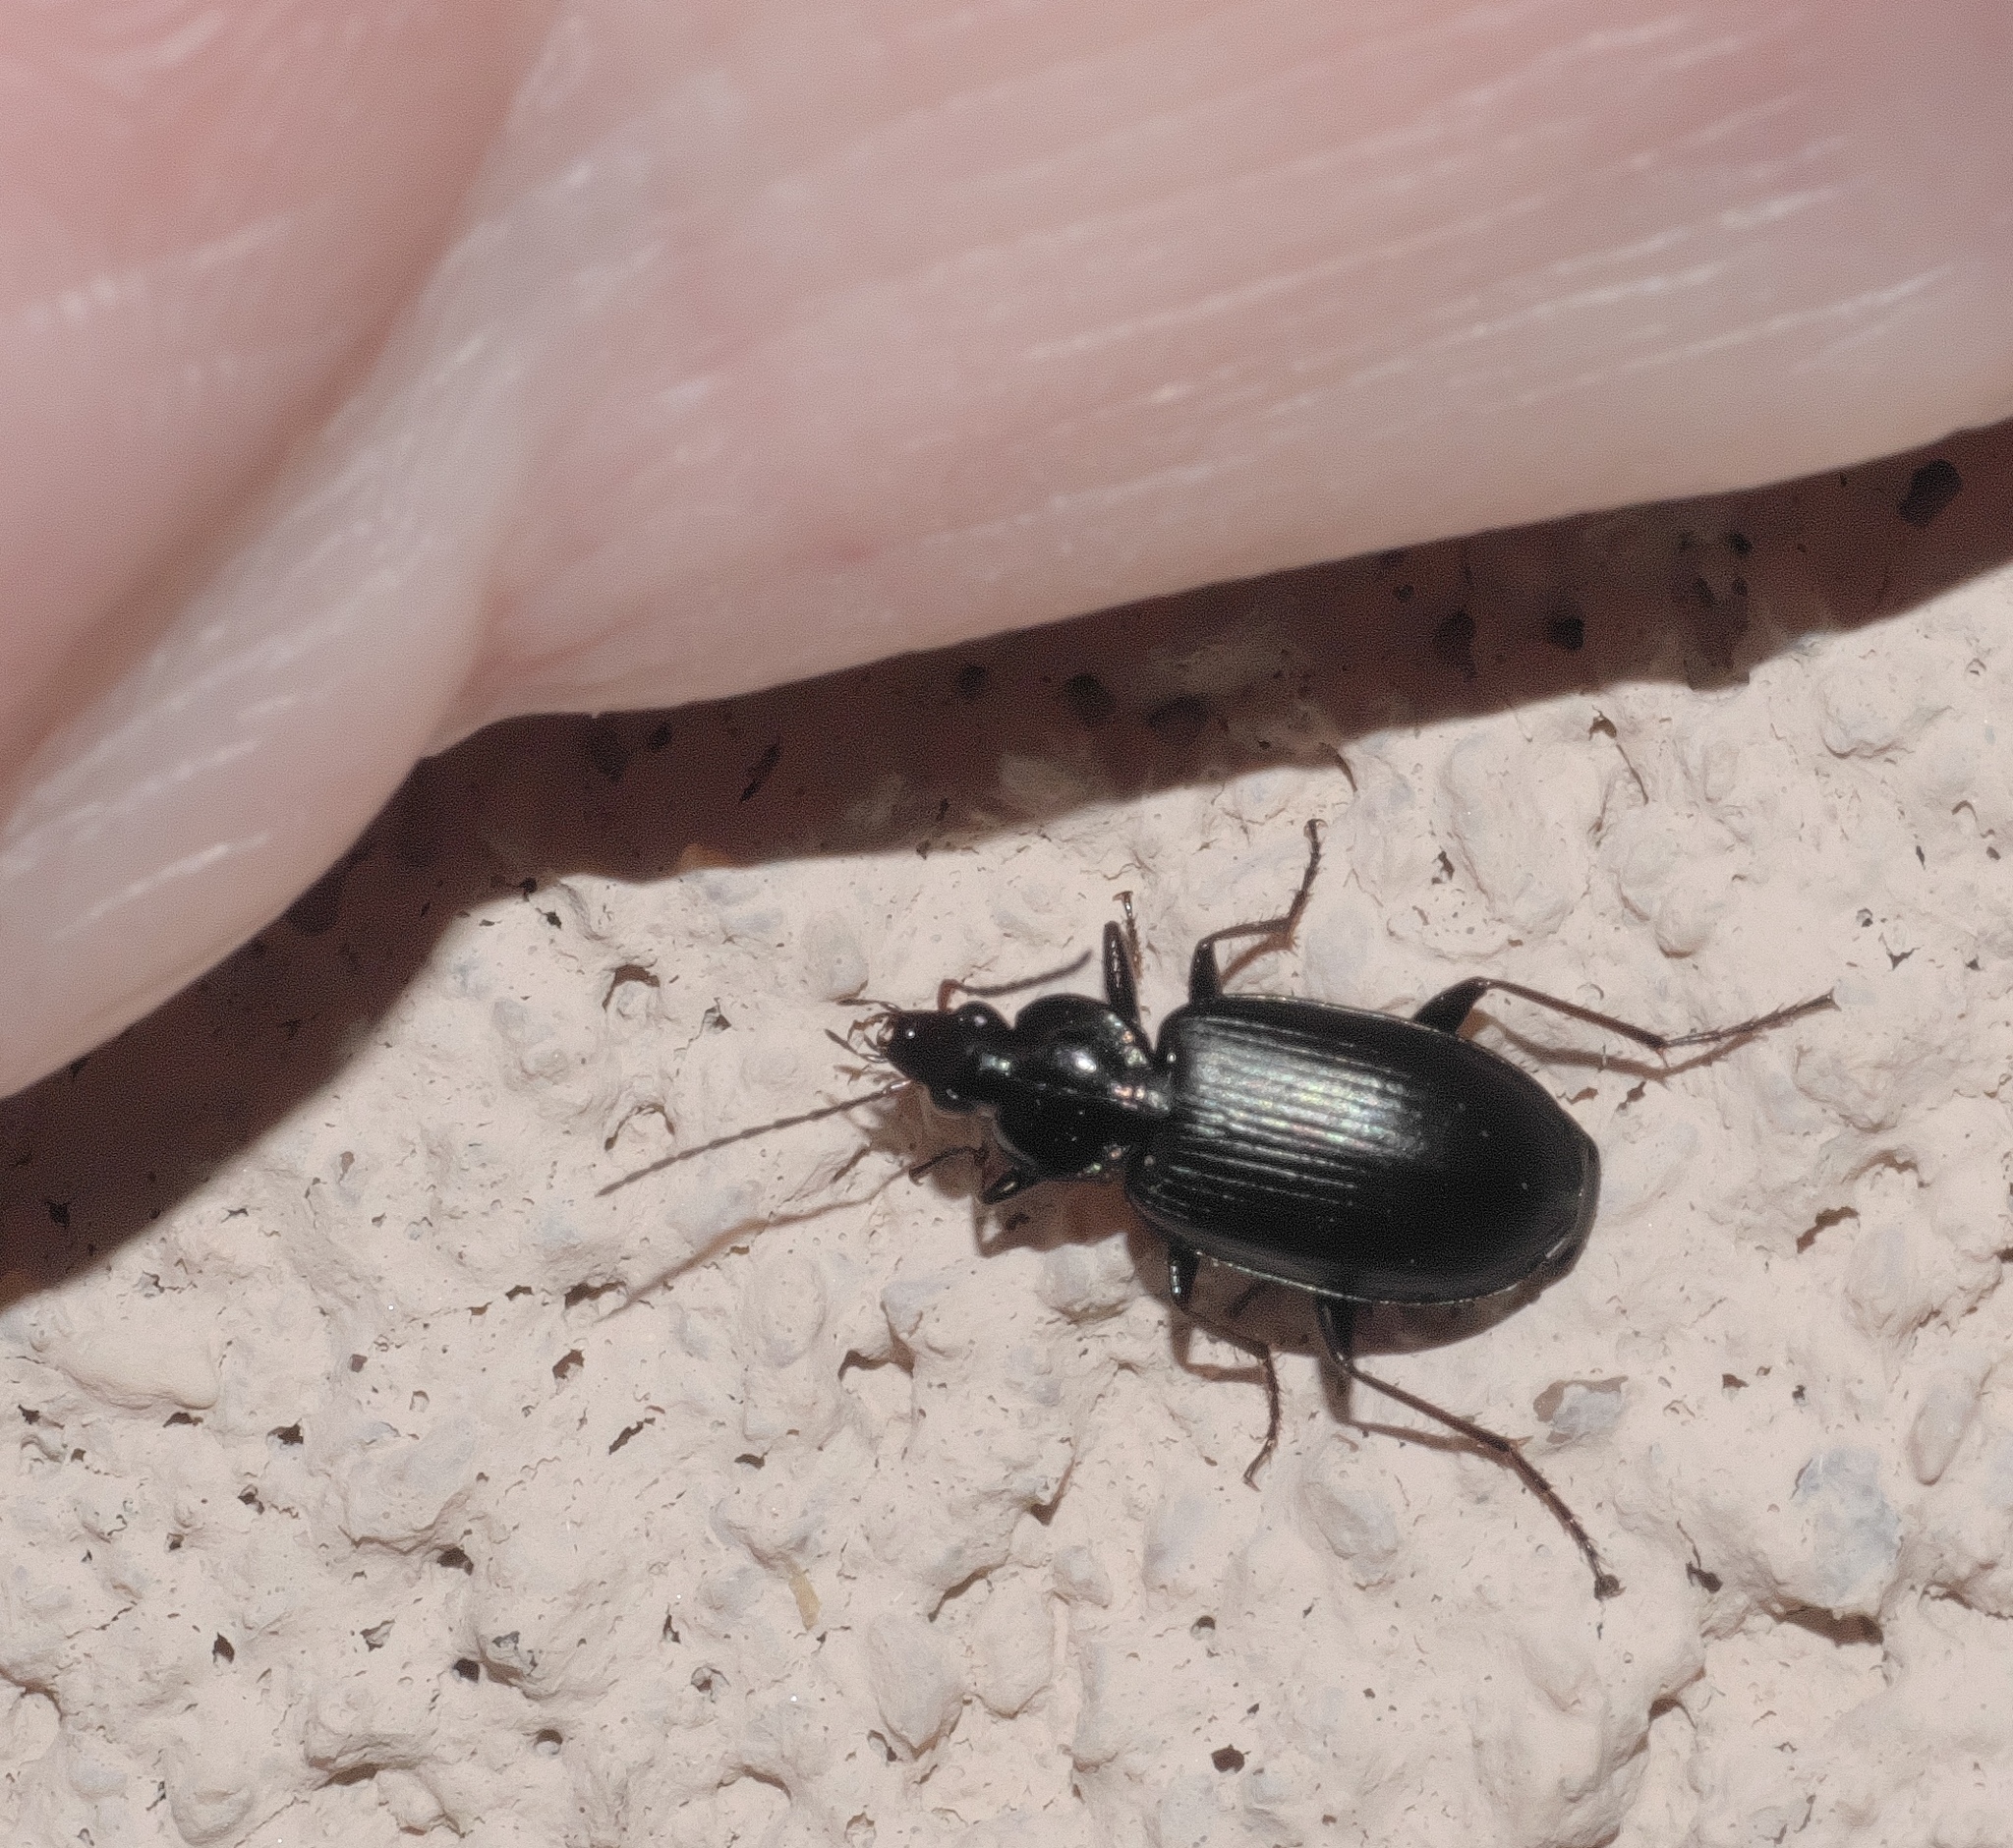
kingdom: Animalia
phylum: Arthropoda
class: Insecta
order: Coleoptera
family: Carabidae
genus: Agonum
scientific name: Agonum placidum
